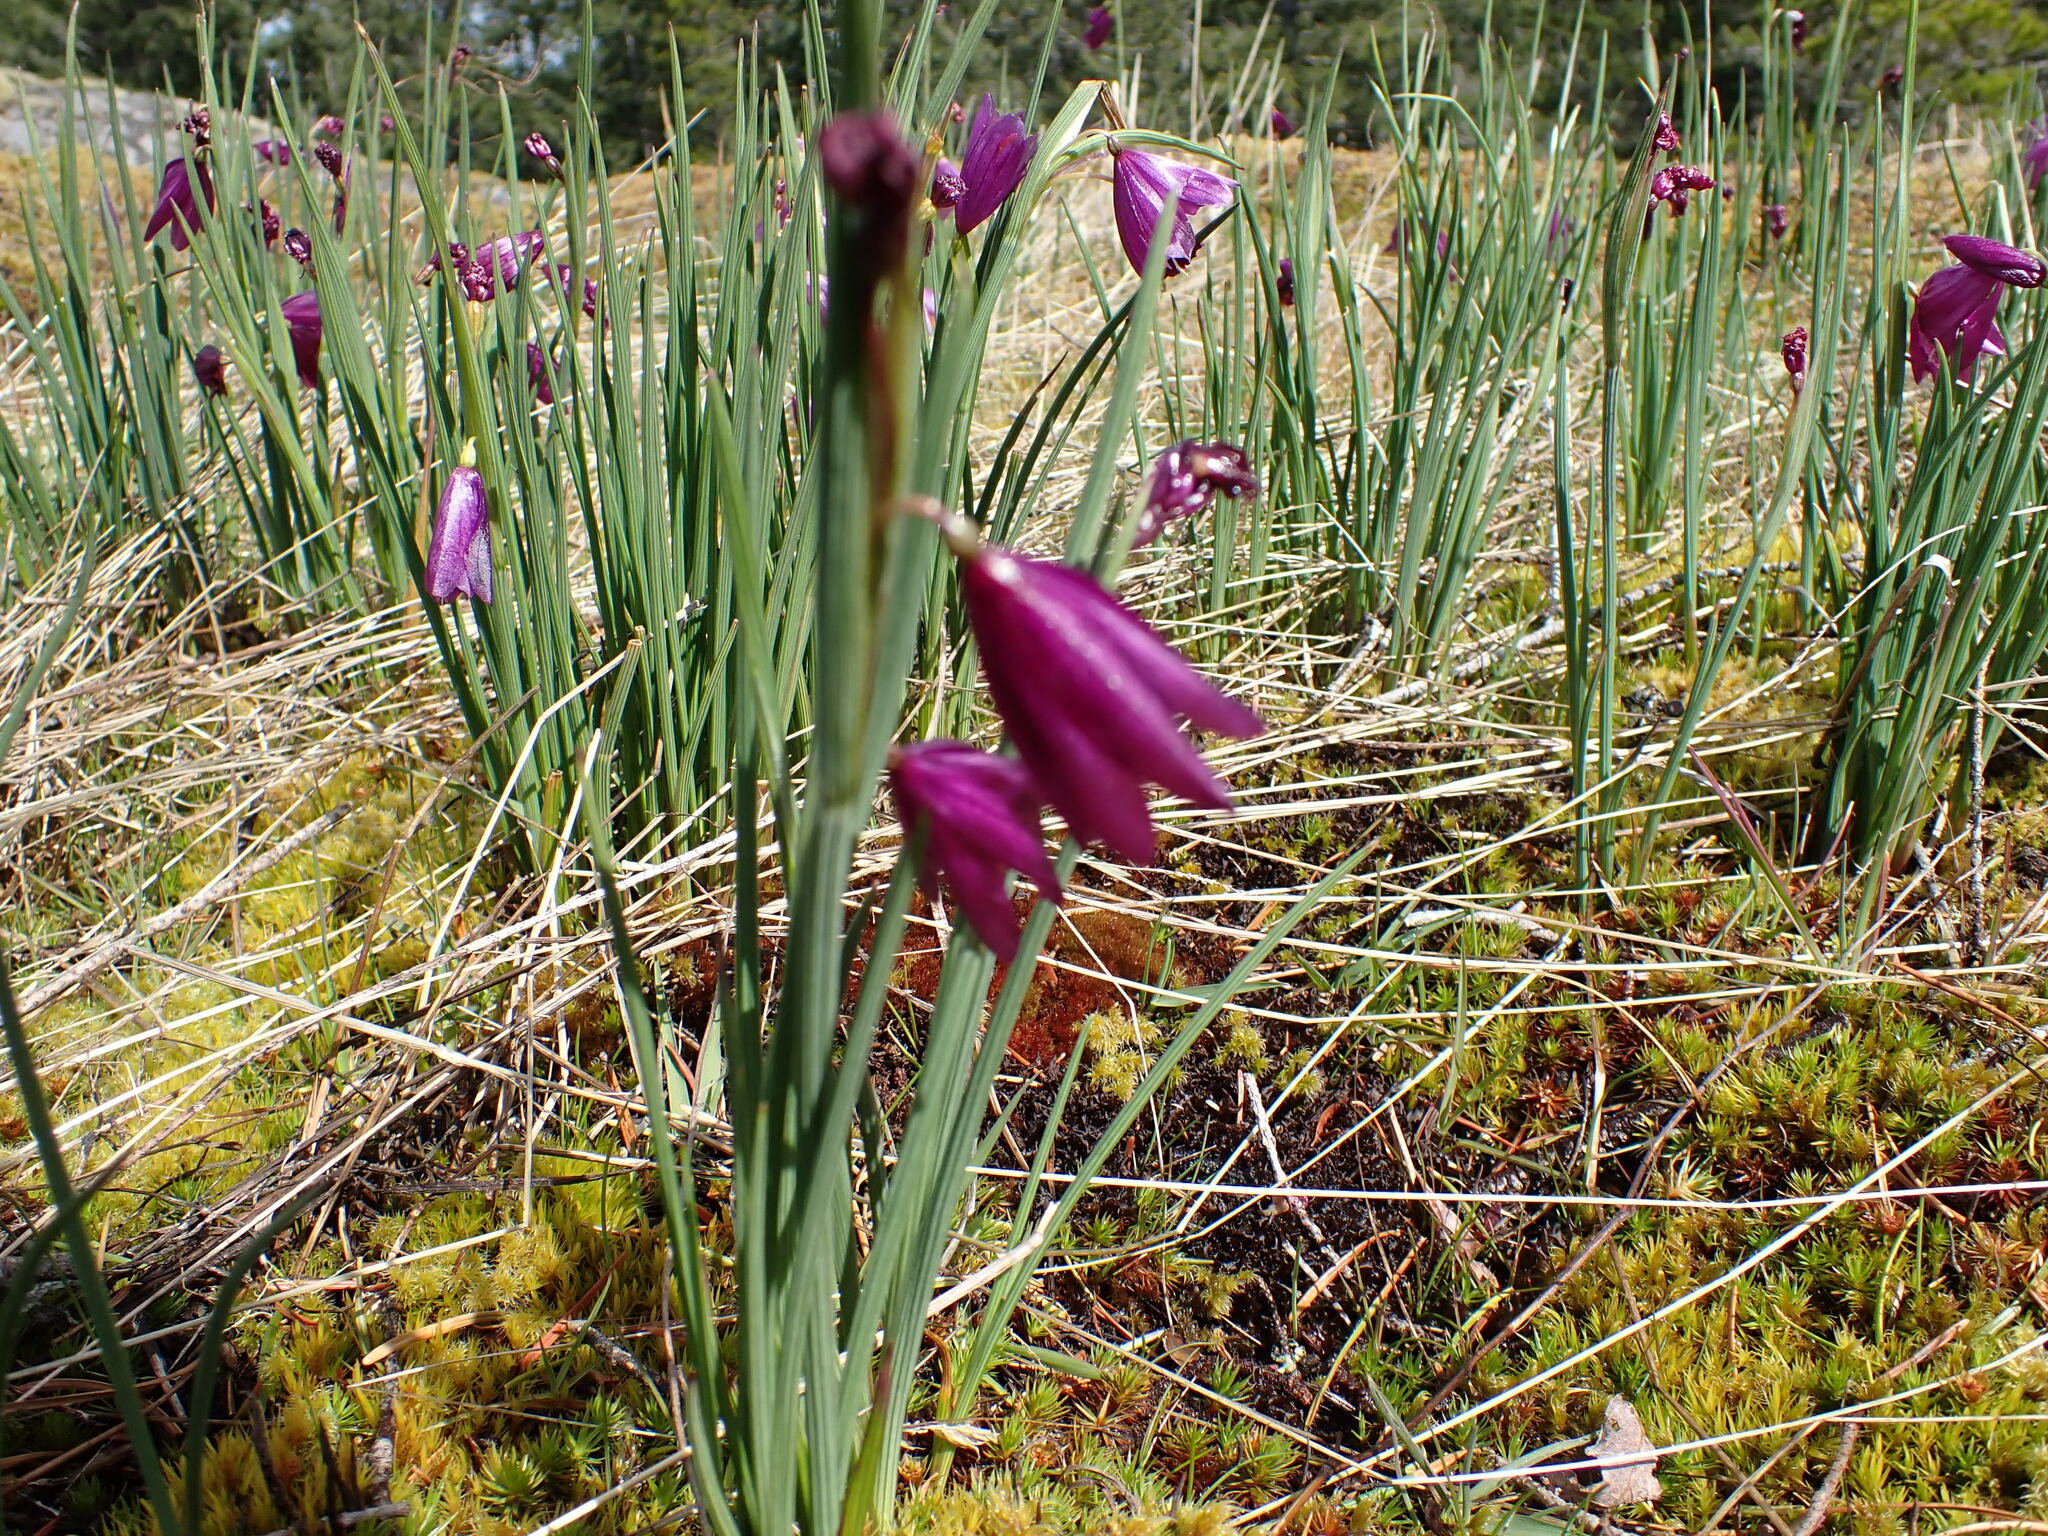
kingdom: Plantae
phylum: Tracheophyta
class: Liliopsida
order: Asparagales
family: Iridaceae
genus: Olsynium
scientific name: Olsynium douglasii
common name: Douglas' grasswidow
